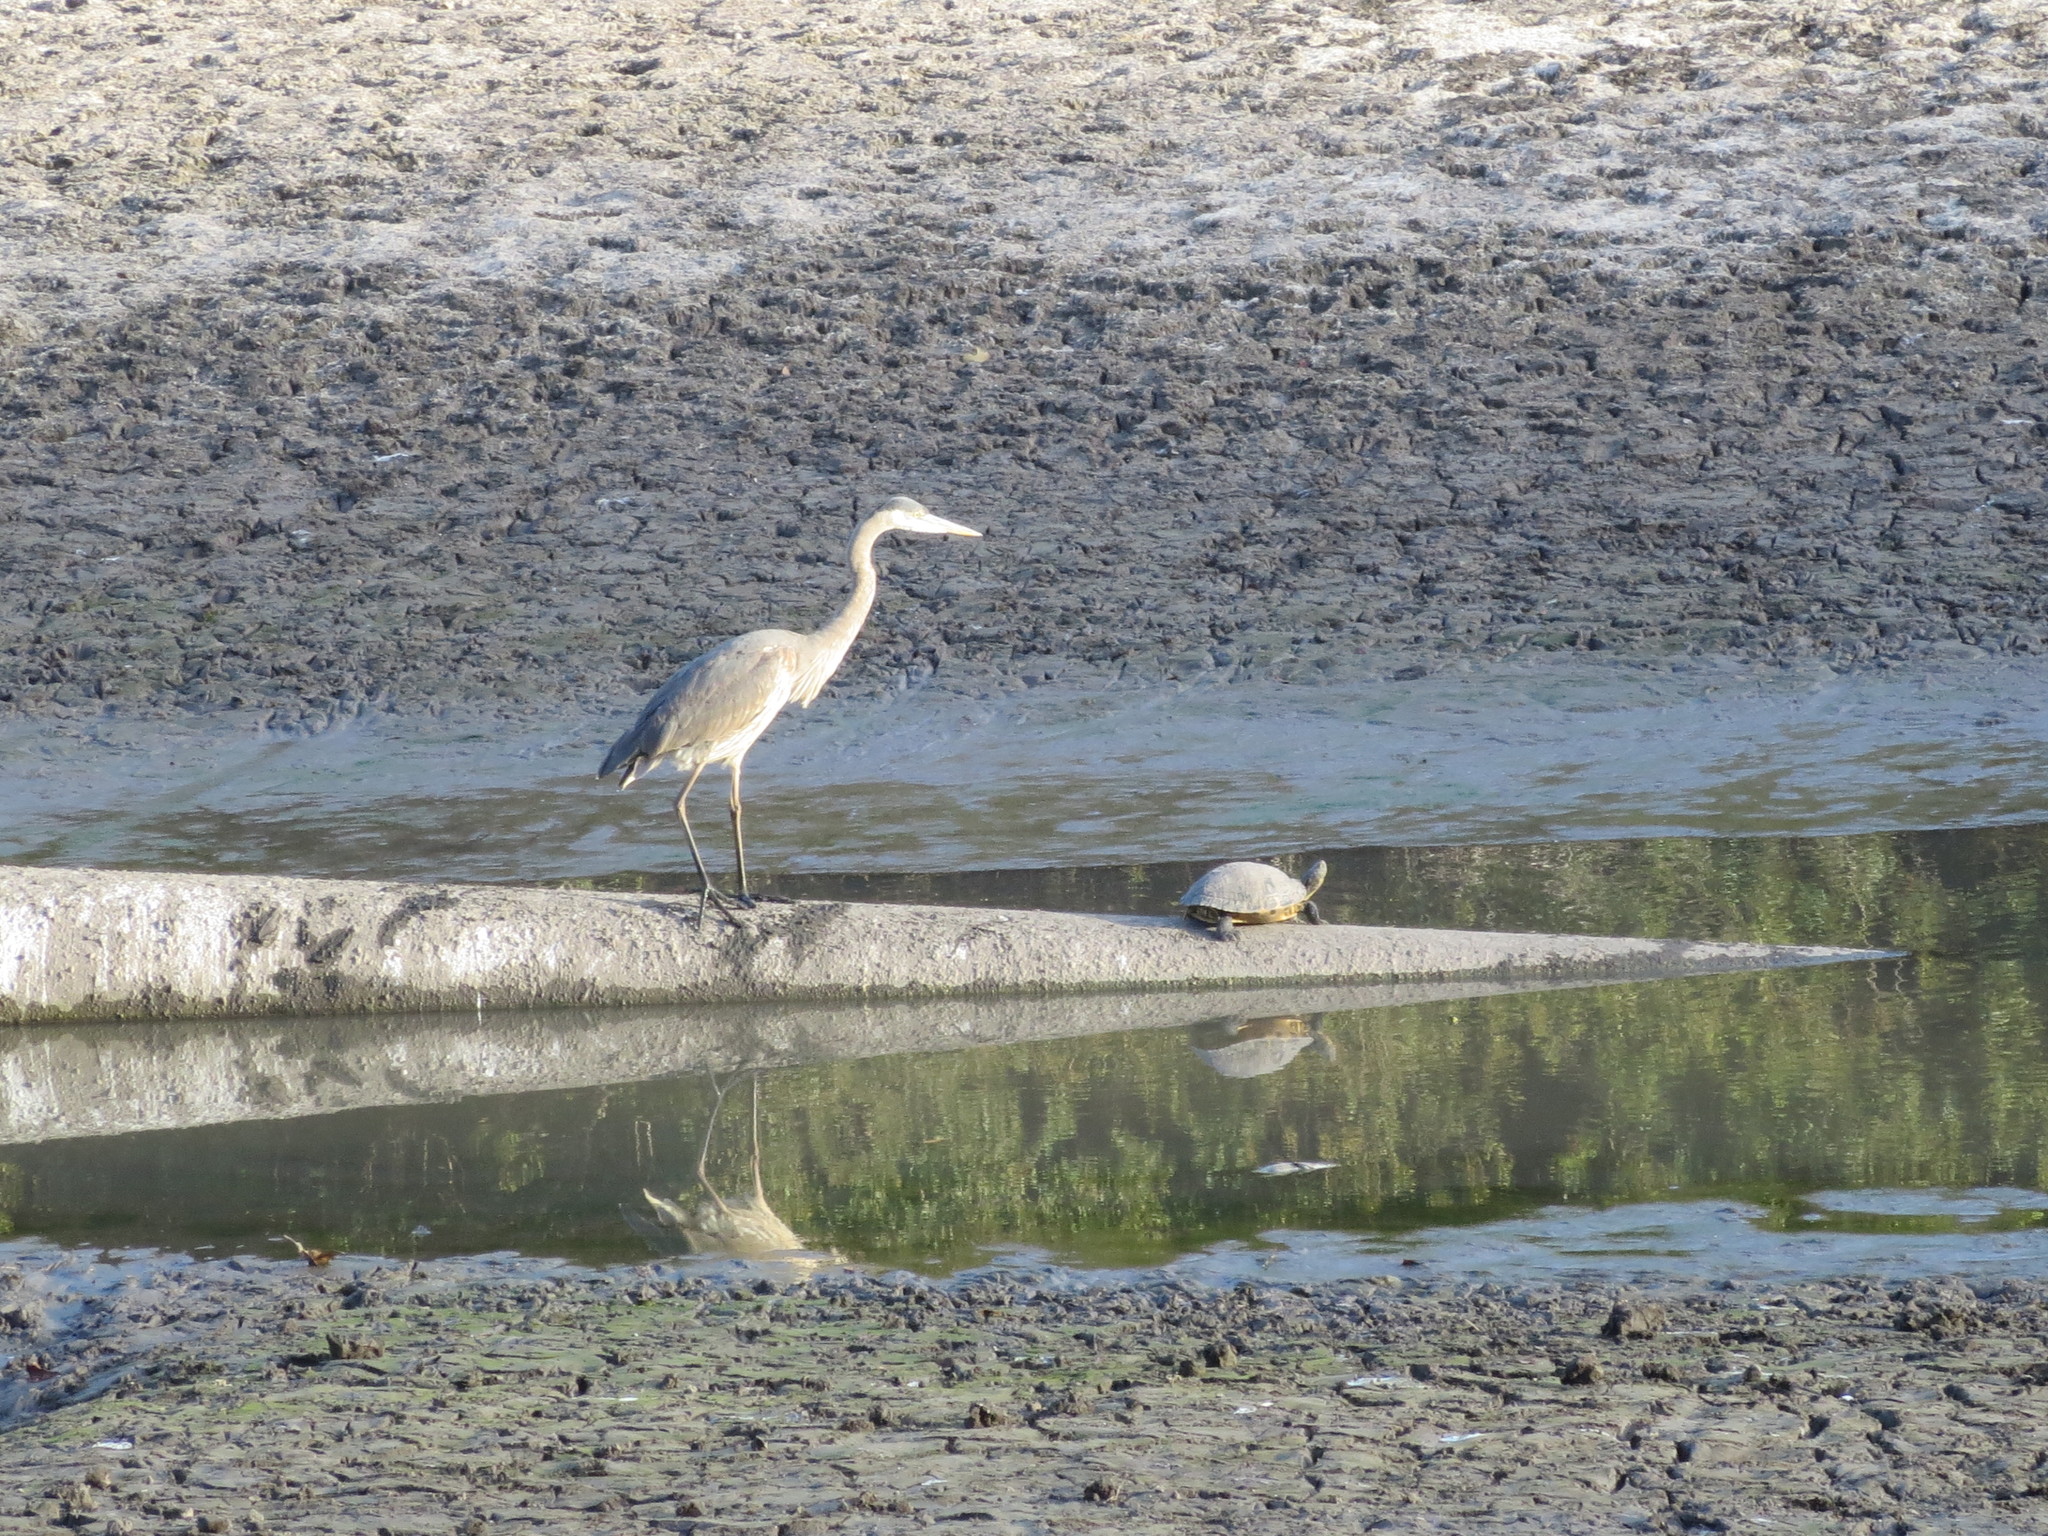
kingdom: Animalia
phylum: Chordata
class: Aves
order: Pelecaniformes
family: Ardeidae
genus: Ardea
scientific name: Ardea herodias
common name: Great blue heron
